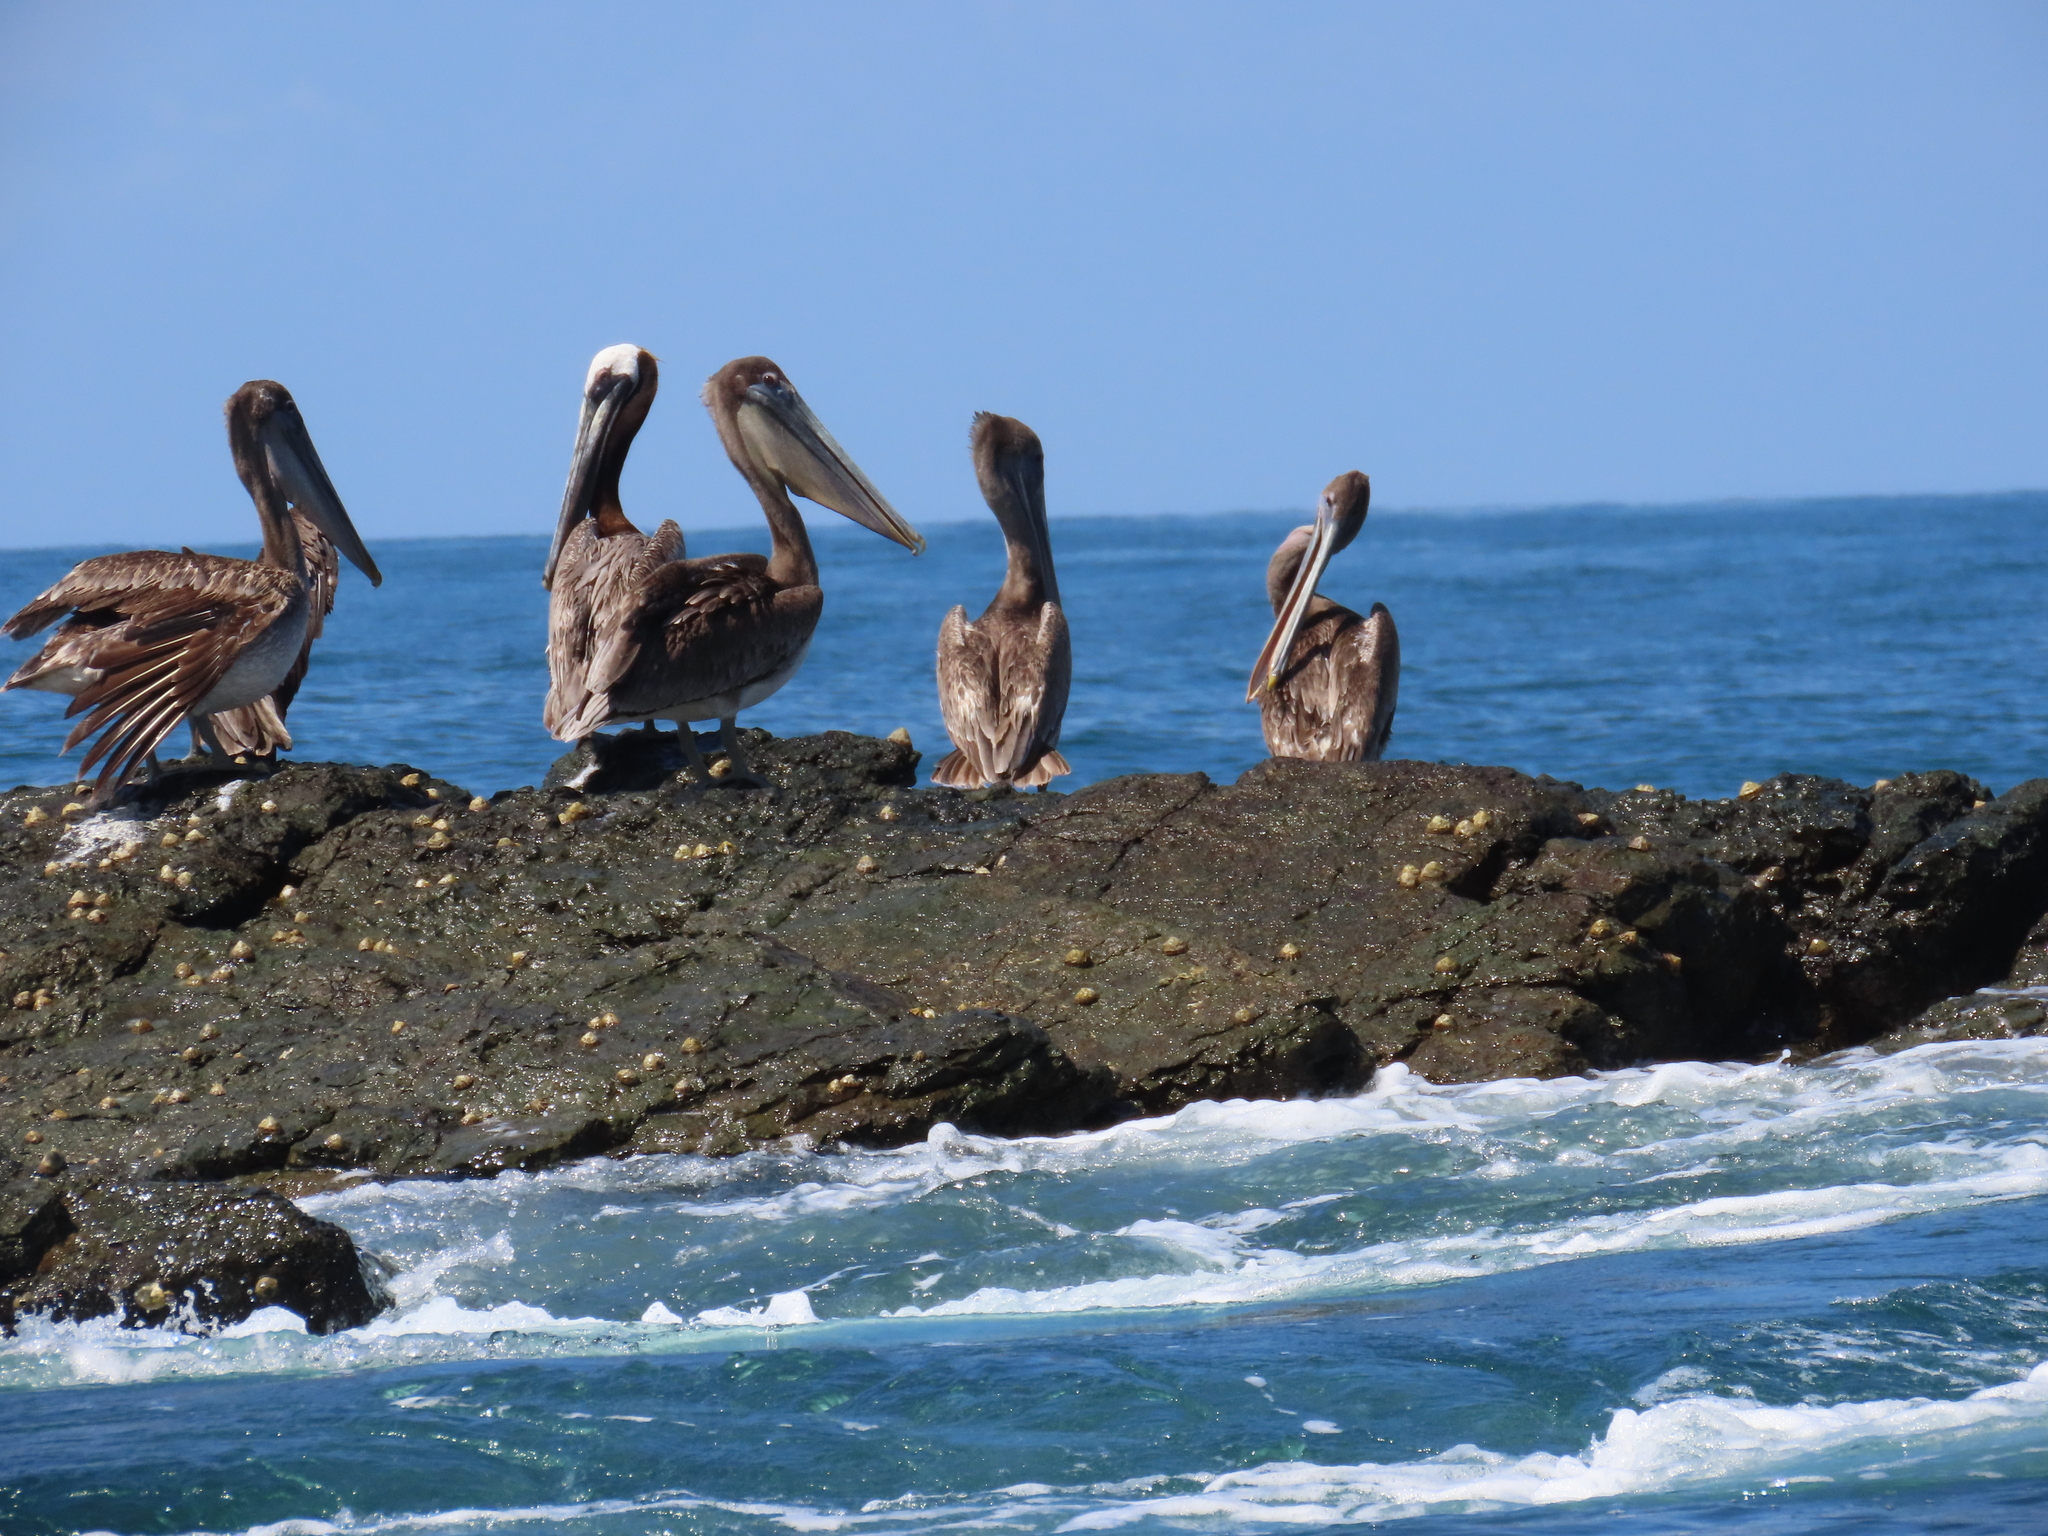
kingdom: Animalia
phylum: Chordata
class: Aves
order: Pelecaniformes
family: Pelecanidae
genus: Pelecanus
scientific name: Pelecanus occidentalis
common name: Brown pelican
